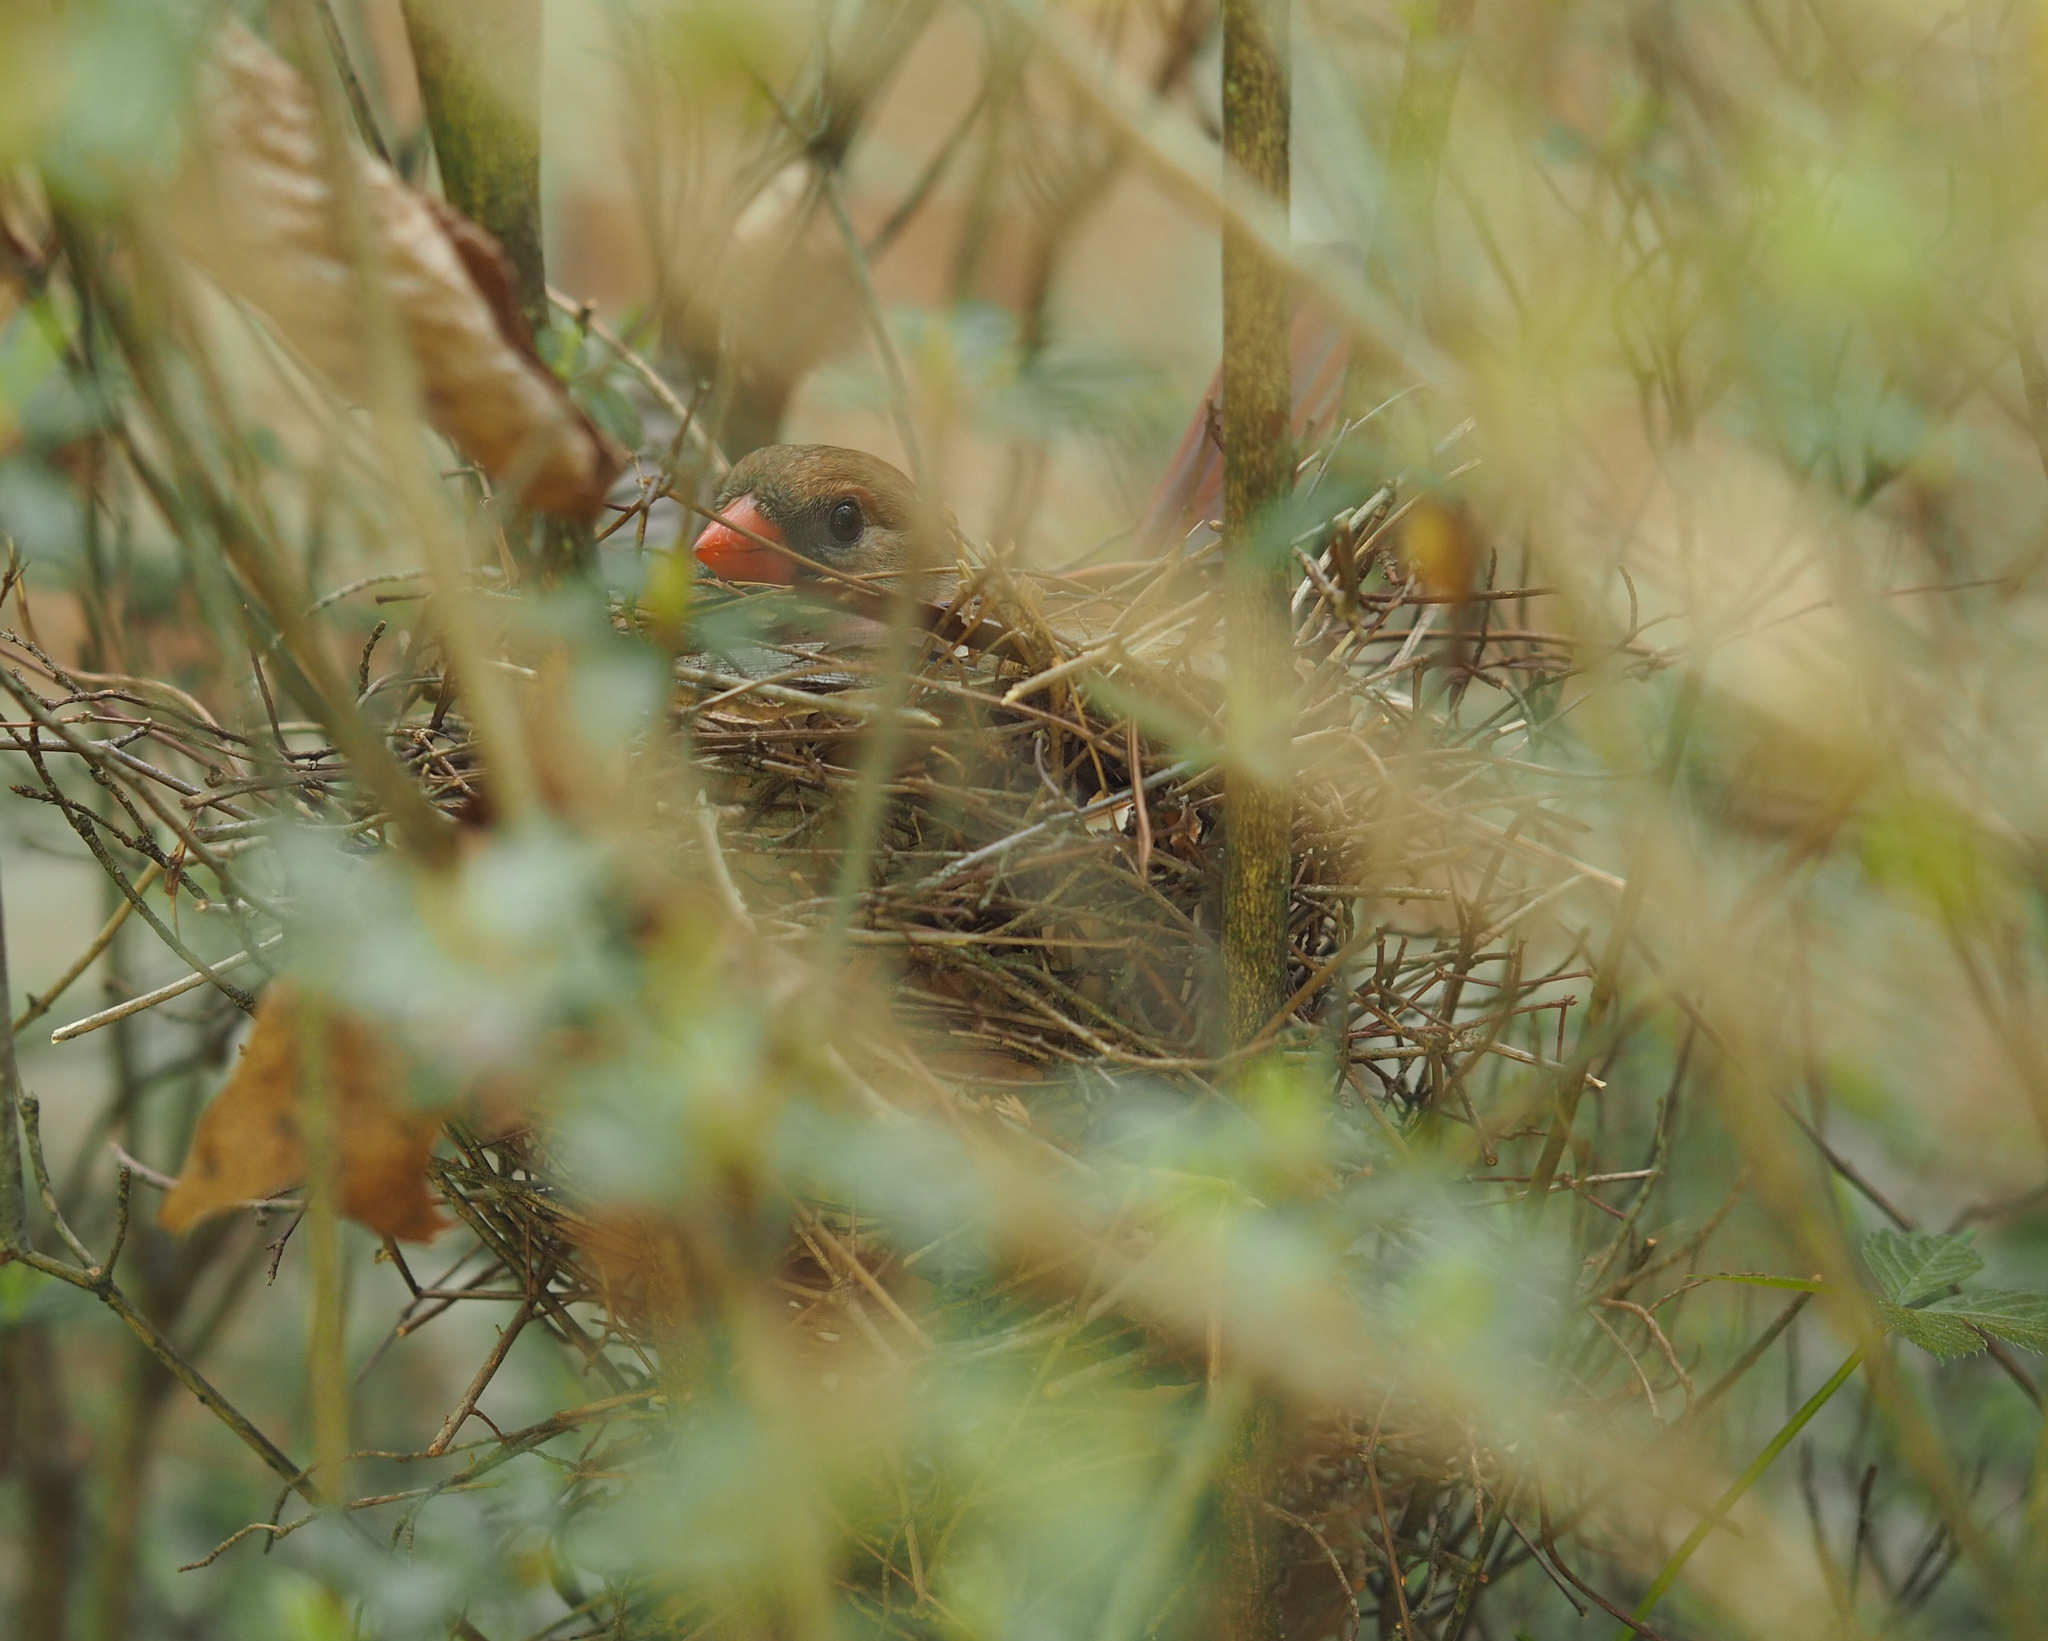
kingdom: Animalia
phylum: Chordata
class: Aves
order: Passeriformes
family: Cardinalidae
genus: Cardinalis
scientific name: Cardinalis cardinalis
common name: Northern cardinal
